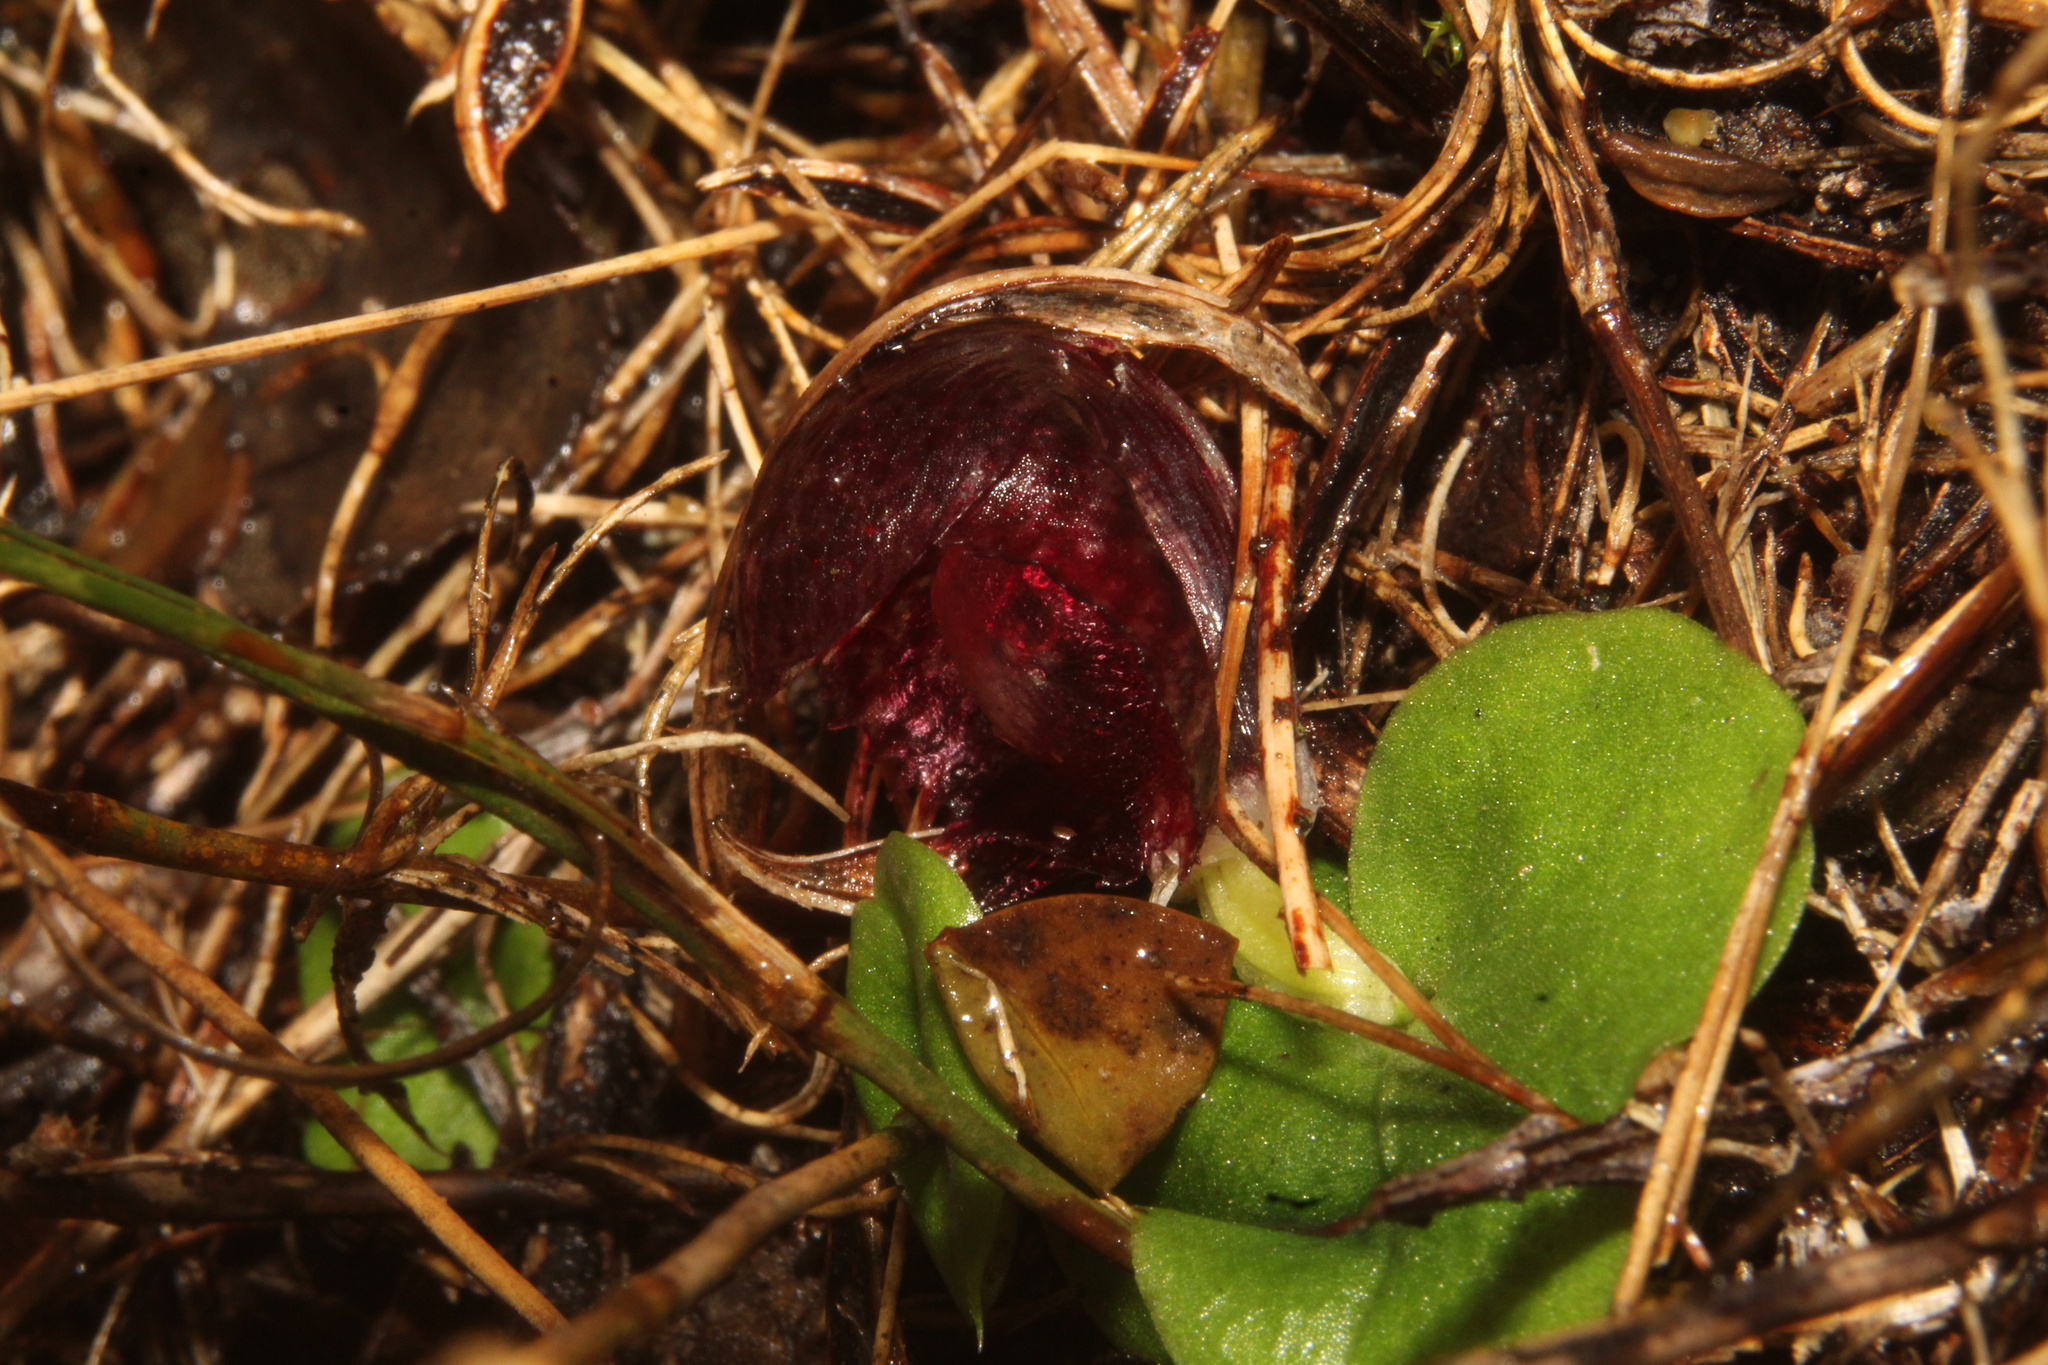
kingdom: Plantae
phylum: Tracheophyta
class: Liliopsida
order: Asparagales
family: Orchidaceae
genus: Corybas
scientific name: Corybas recurvus
